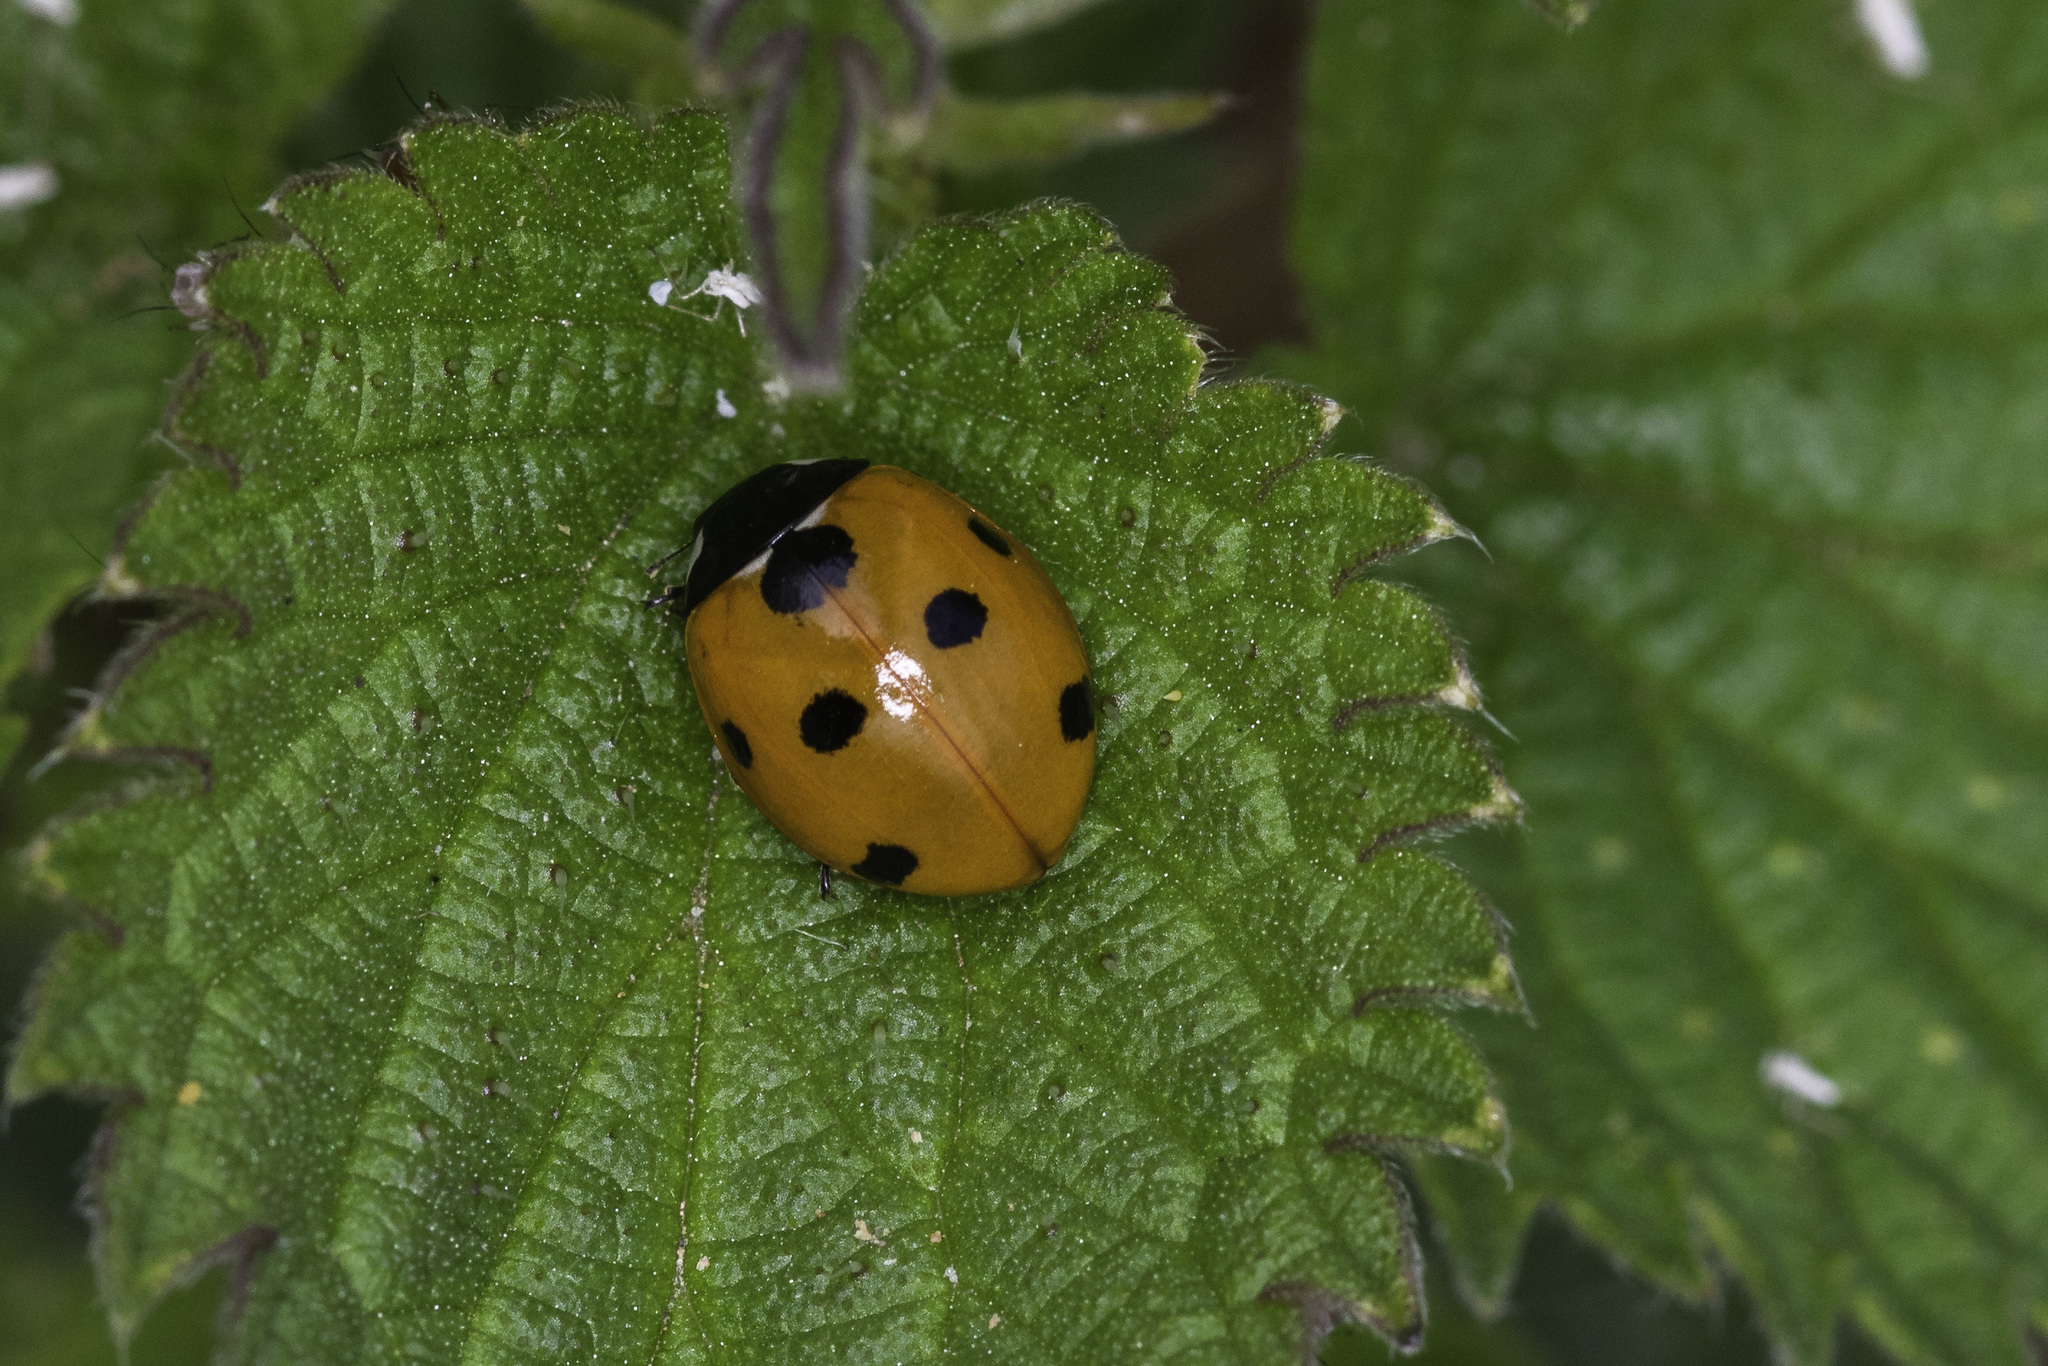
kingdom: Animalia
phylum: Arthropoda
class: Insecta
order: Coleoptera
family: Coccinellidae
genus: Coccinella
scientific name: Coccinella septempunctata
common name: Sevenspotted lady beetle
